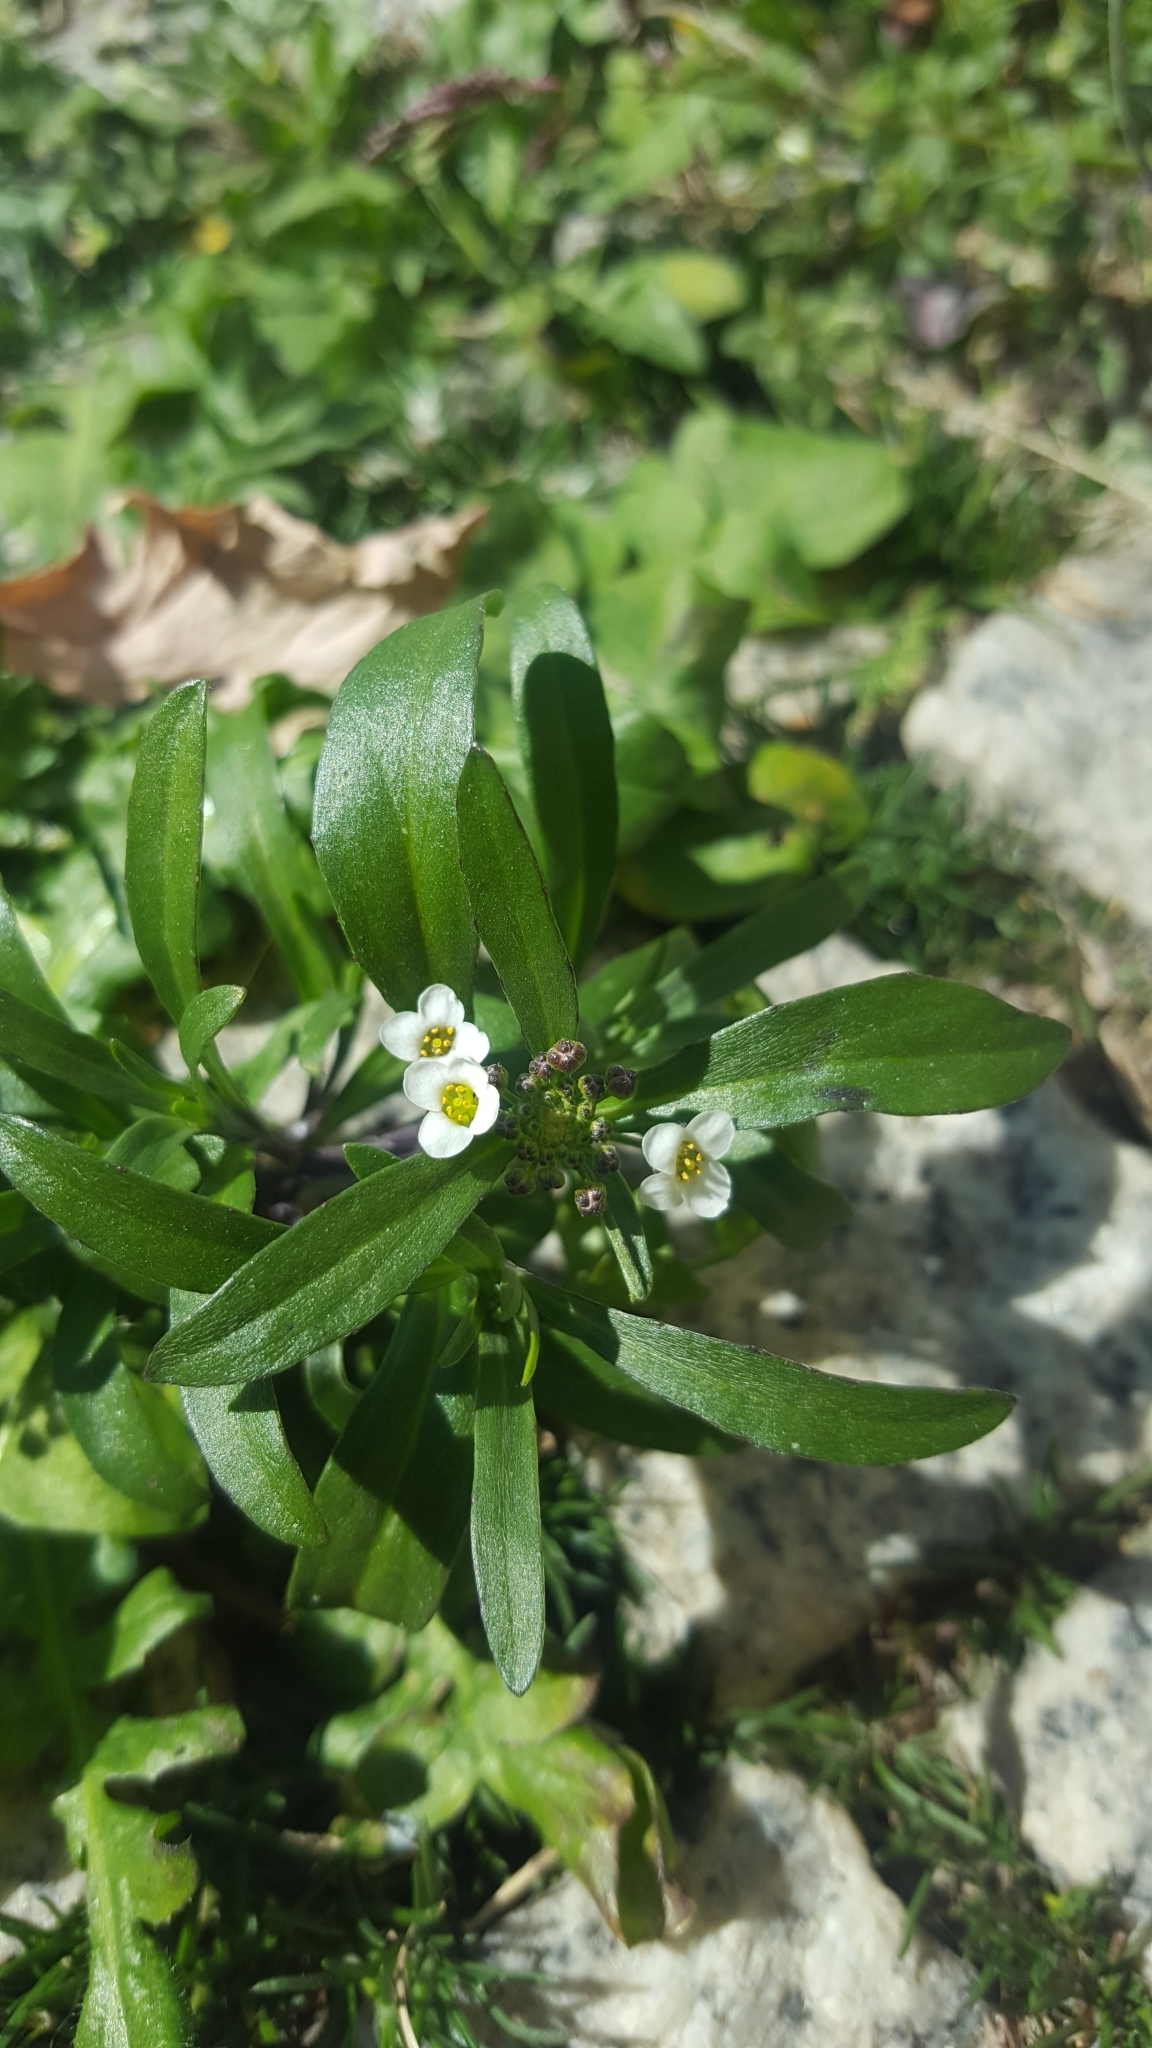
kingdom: Plantae
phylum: Tracheophyta
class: Magnoliopsida
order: Brassicales
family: Brassicaceae
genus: Lobularia
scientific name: Lobularia maritima
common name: Sweet alison
